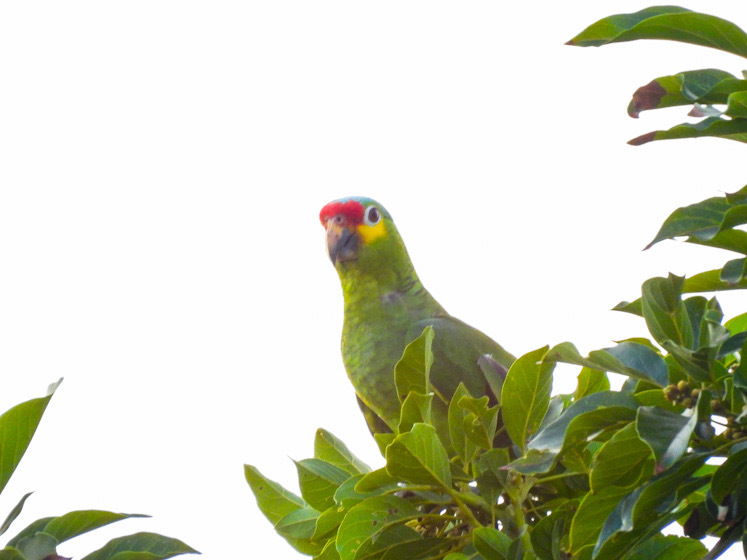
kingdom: Animalia
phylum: Chordata
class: Aves
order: Psittaciformes
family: Psittacidae
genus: Amazona
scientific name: Amazona autumnalis
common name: Red-lored amazon
